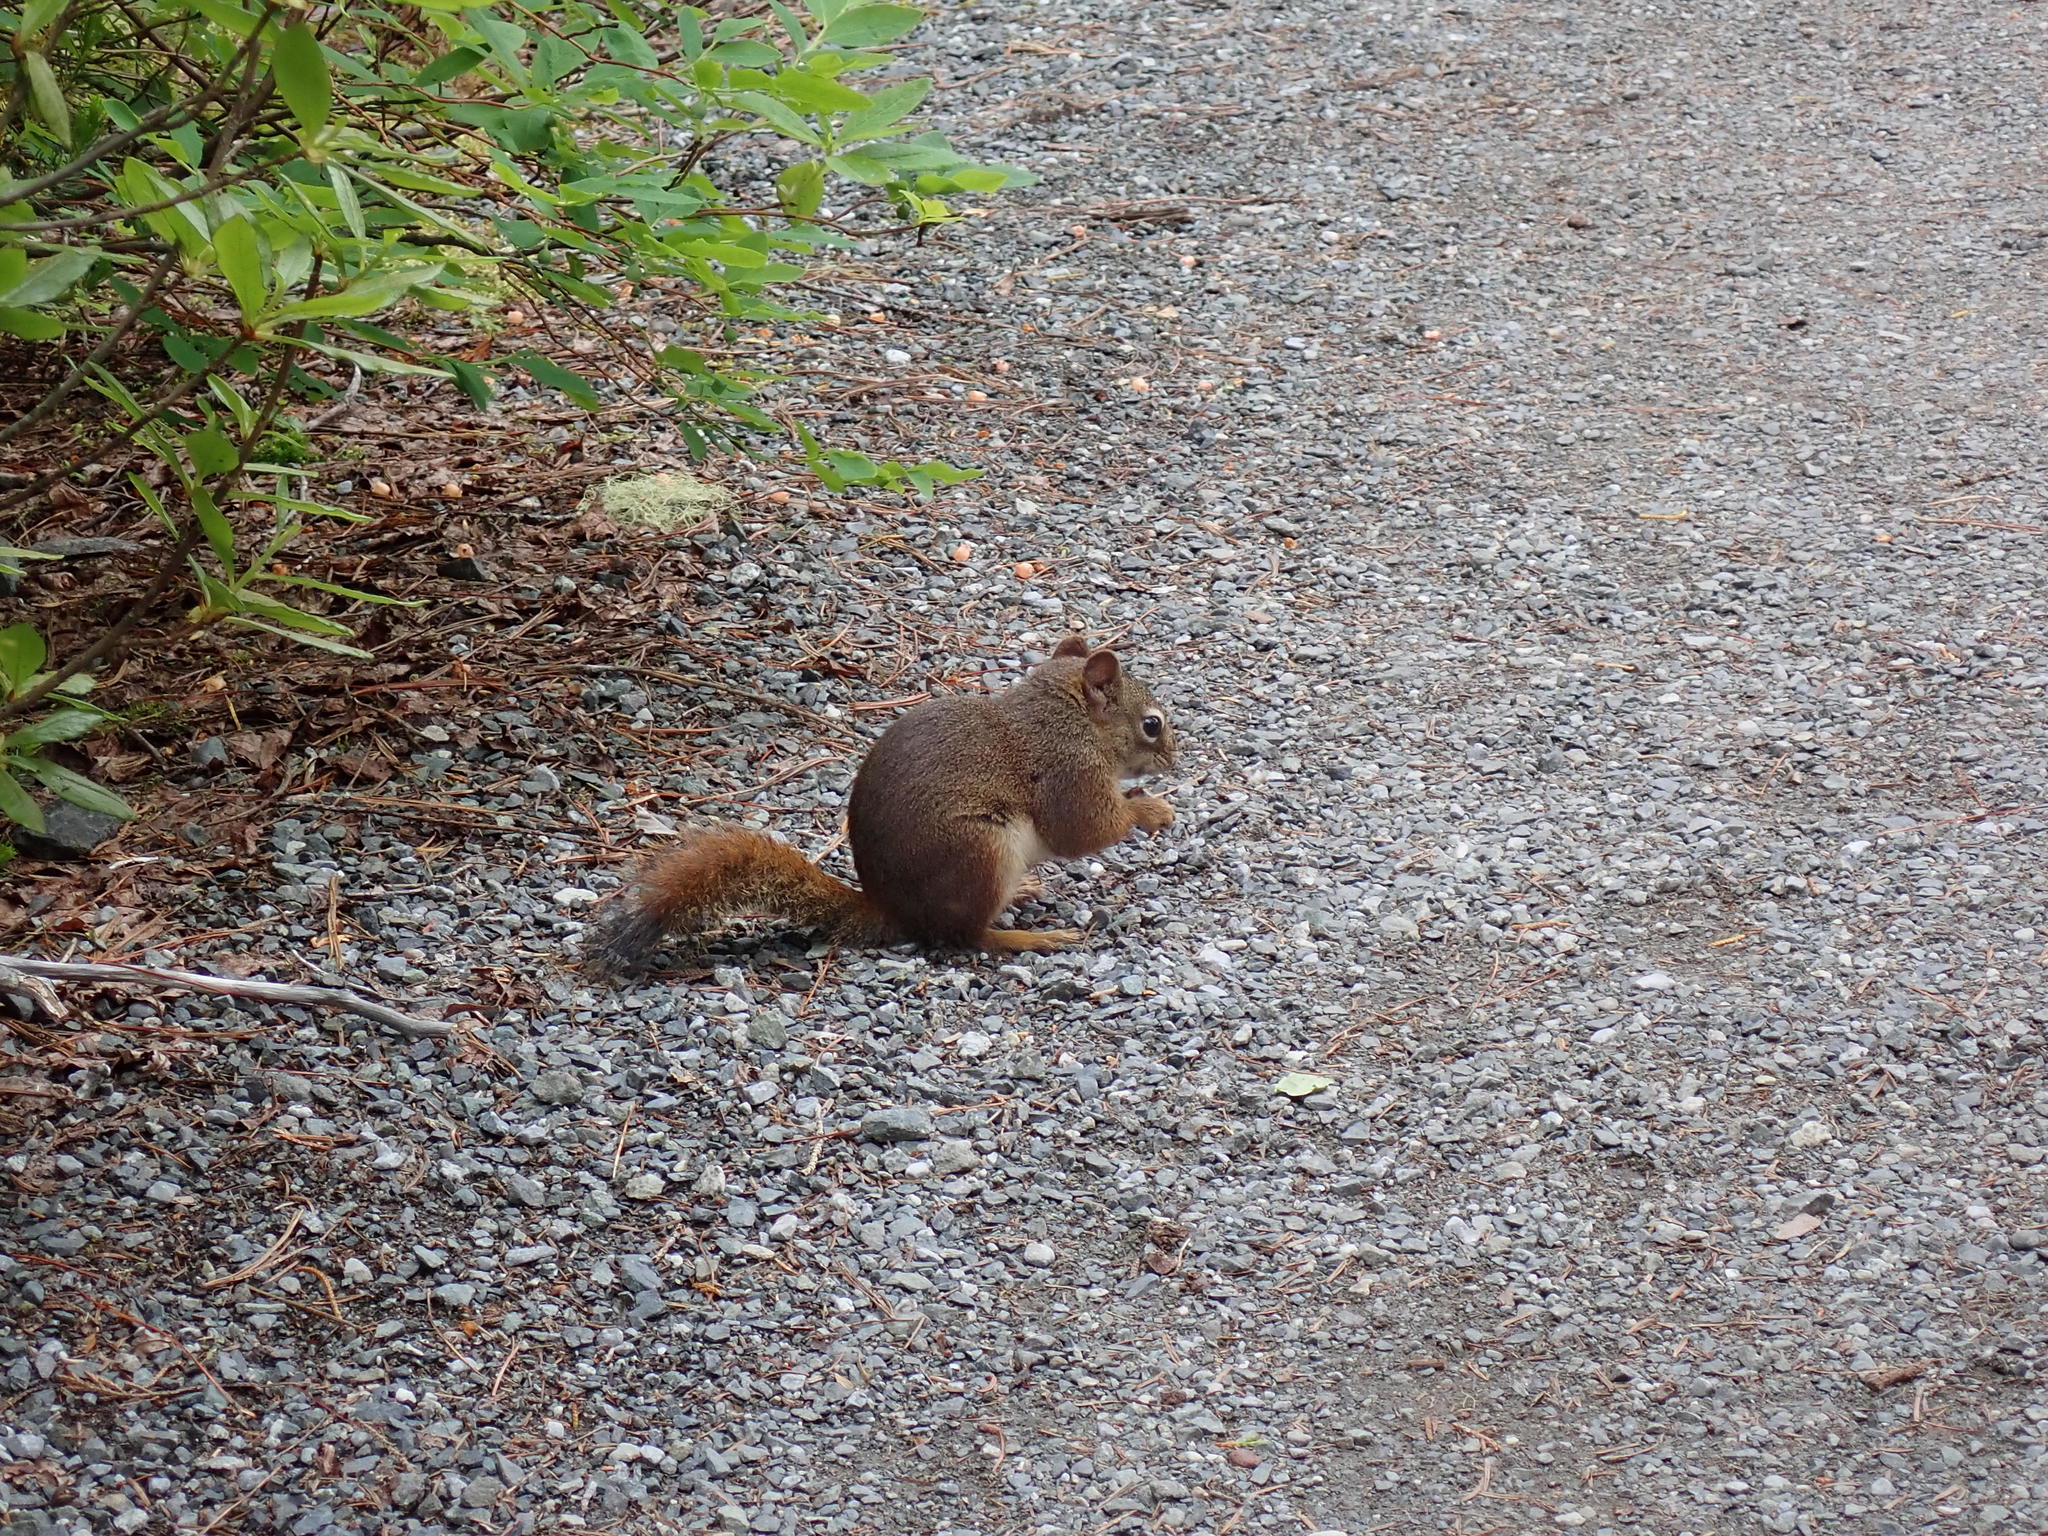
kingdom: Animalia
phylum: Chordata
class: Mammalia
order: Rodentia
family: Sciuridae
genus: Tamiasciurus
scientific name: Tamiasciurus hudsonicus
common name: Red squirrel
